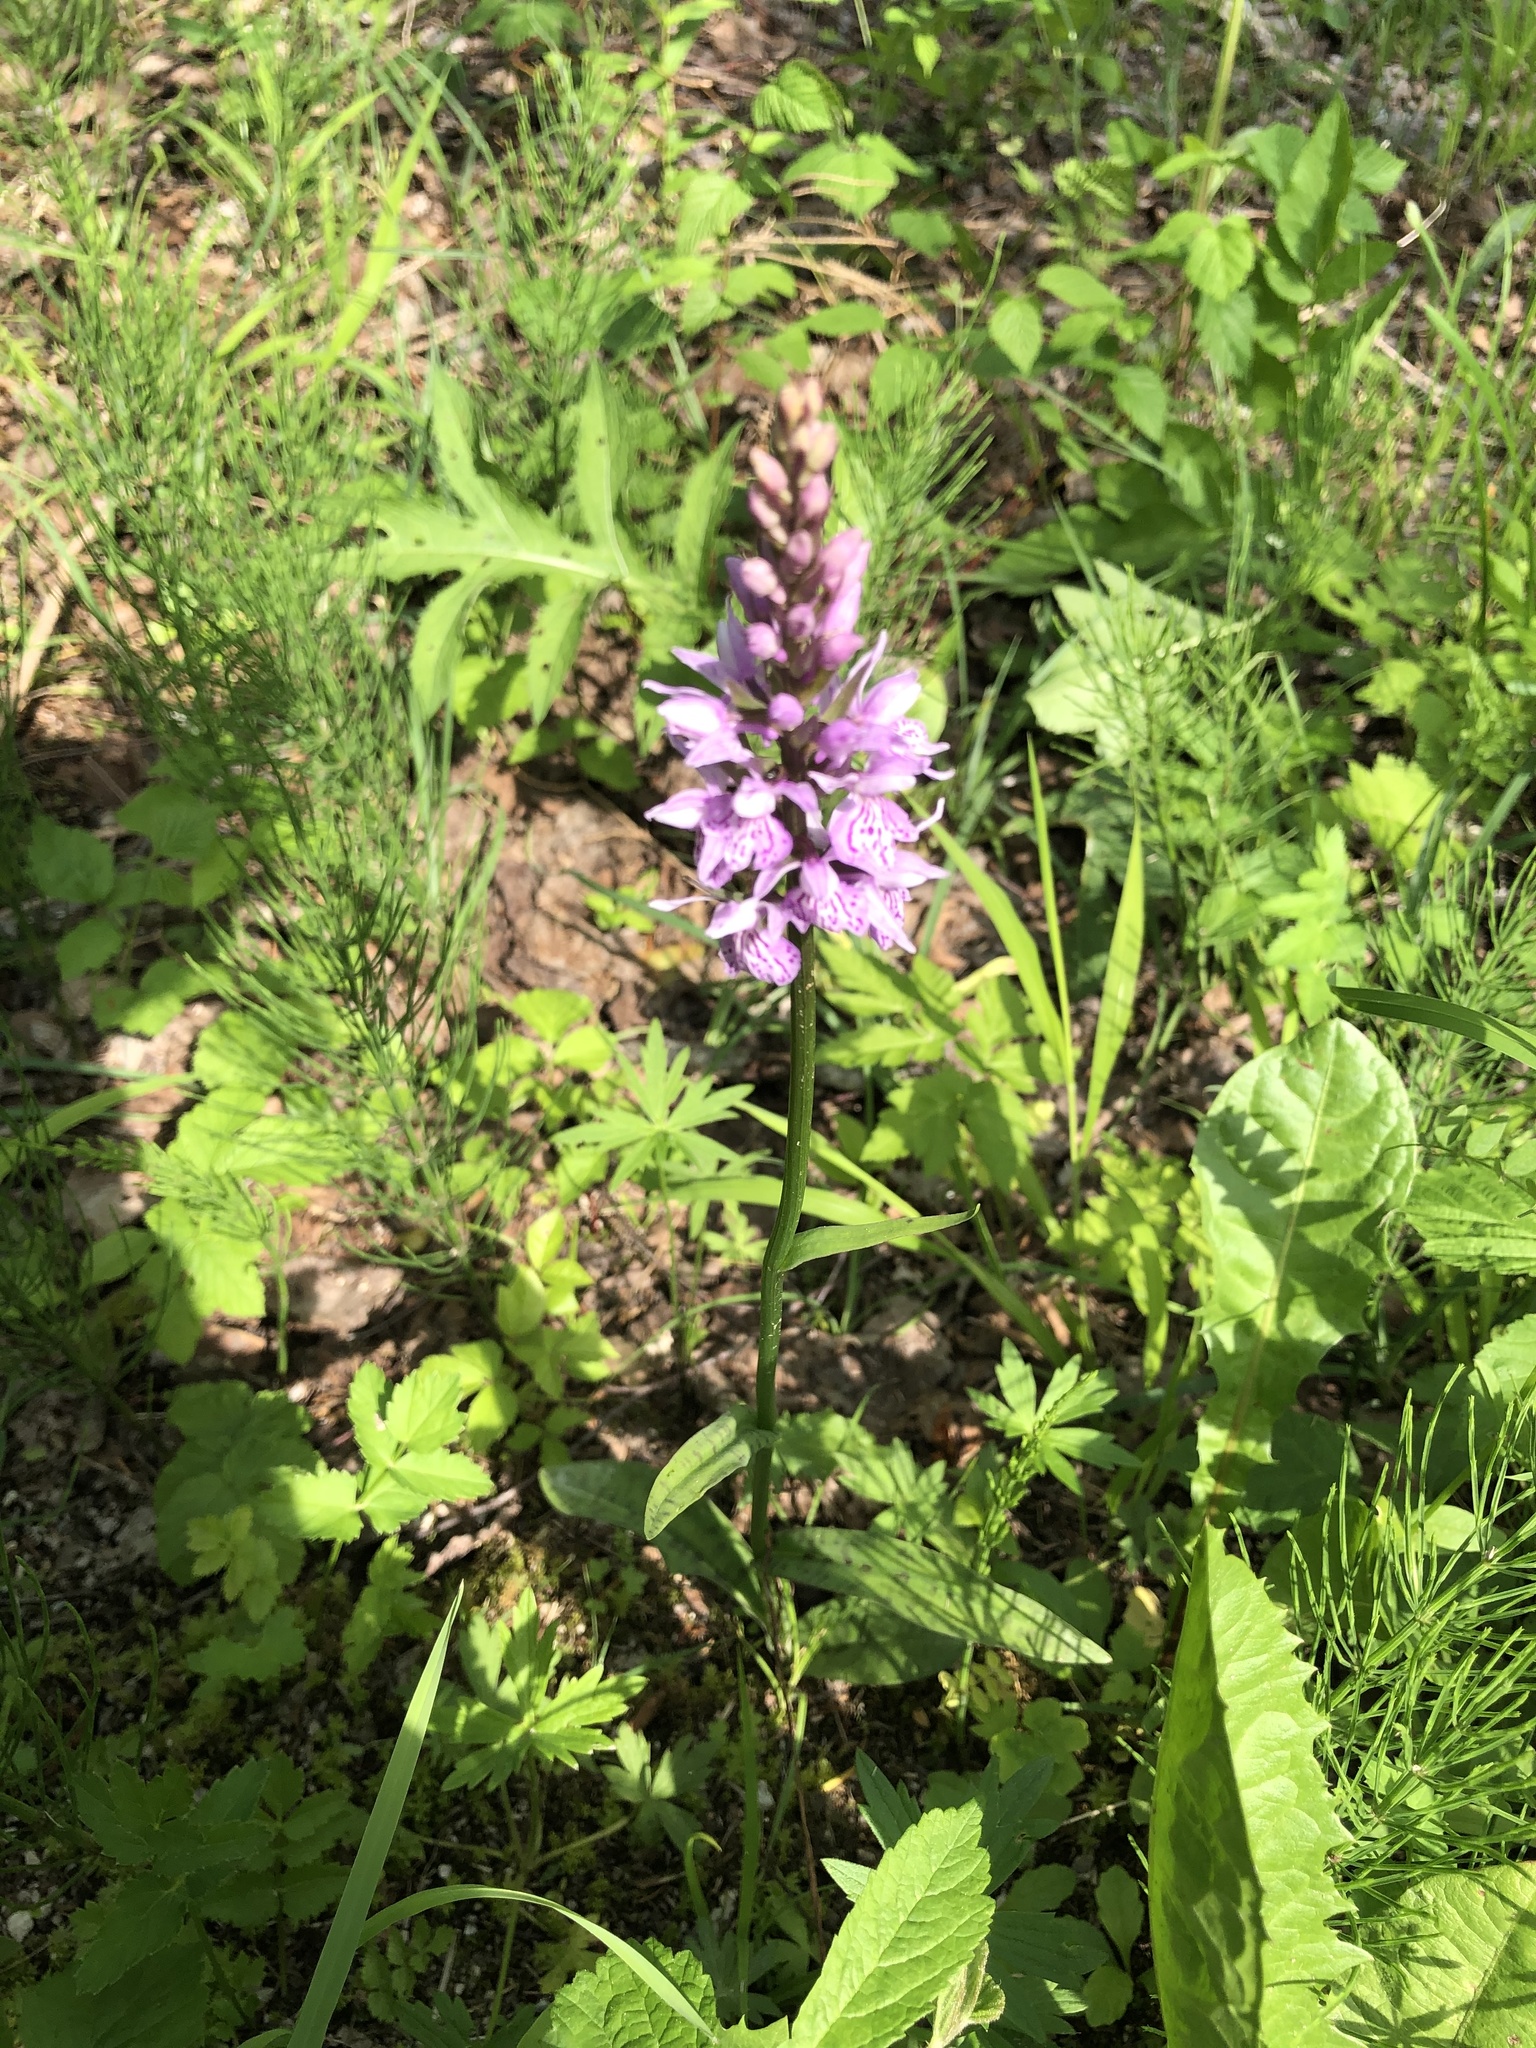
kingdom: Plantae
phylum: Tracheophyta
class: Liliopsida
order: Asparagales
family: Orchidaceae
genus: Dactylorhiza
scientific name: Dactylorhiza maculata
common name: Heath spotted-orchid
